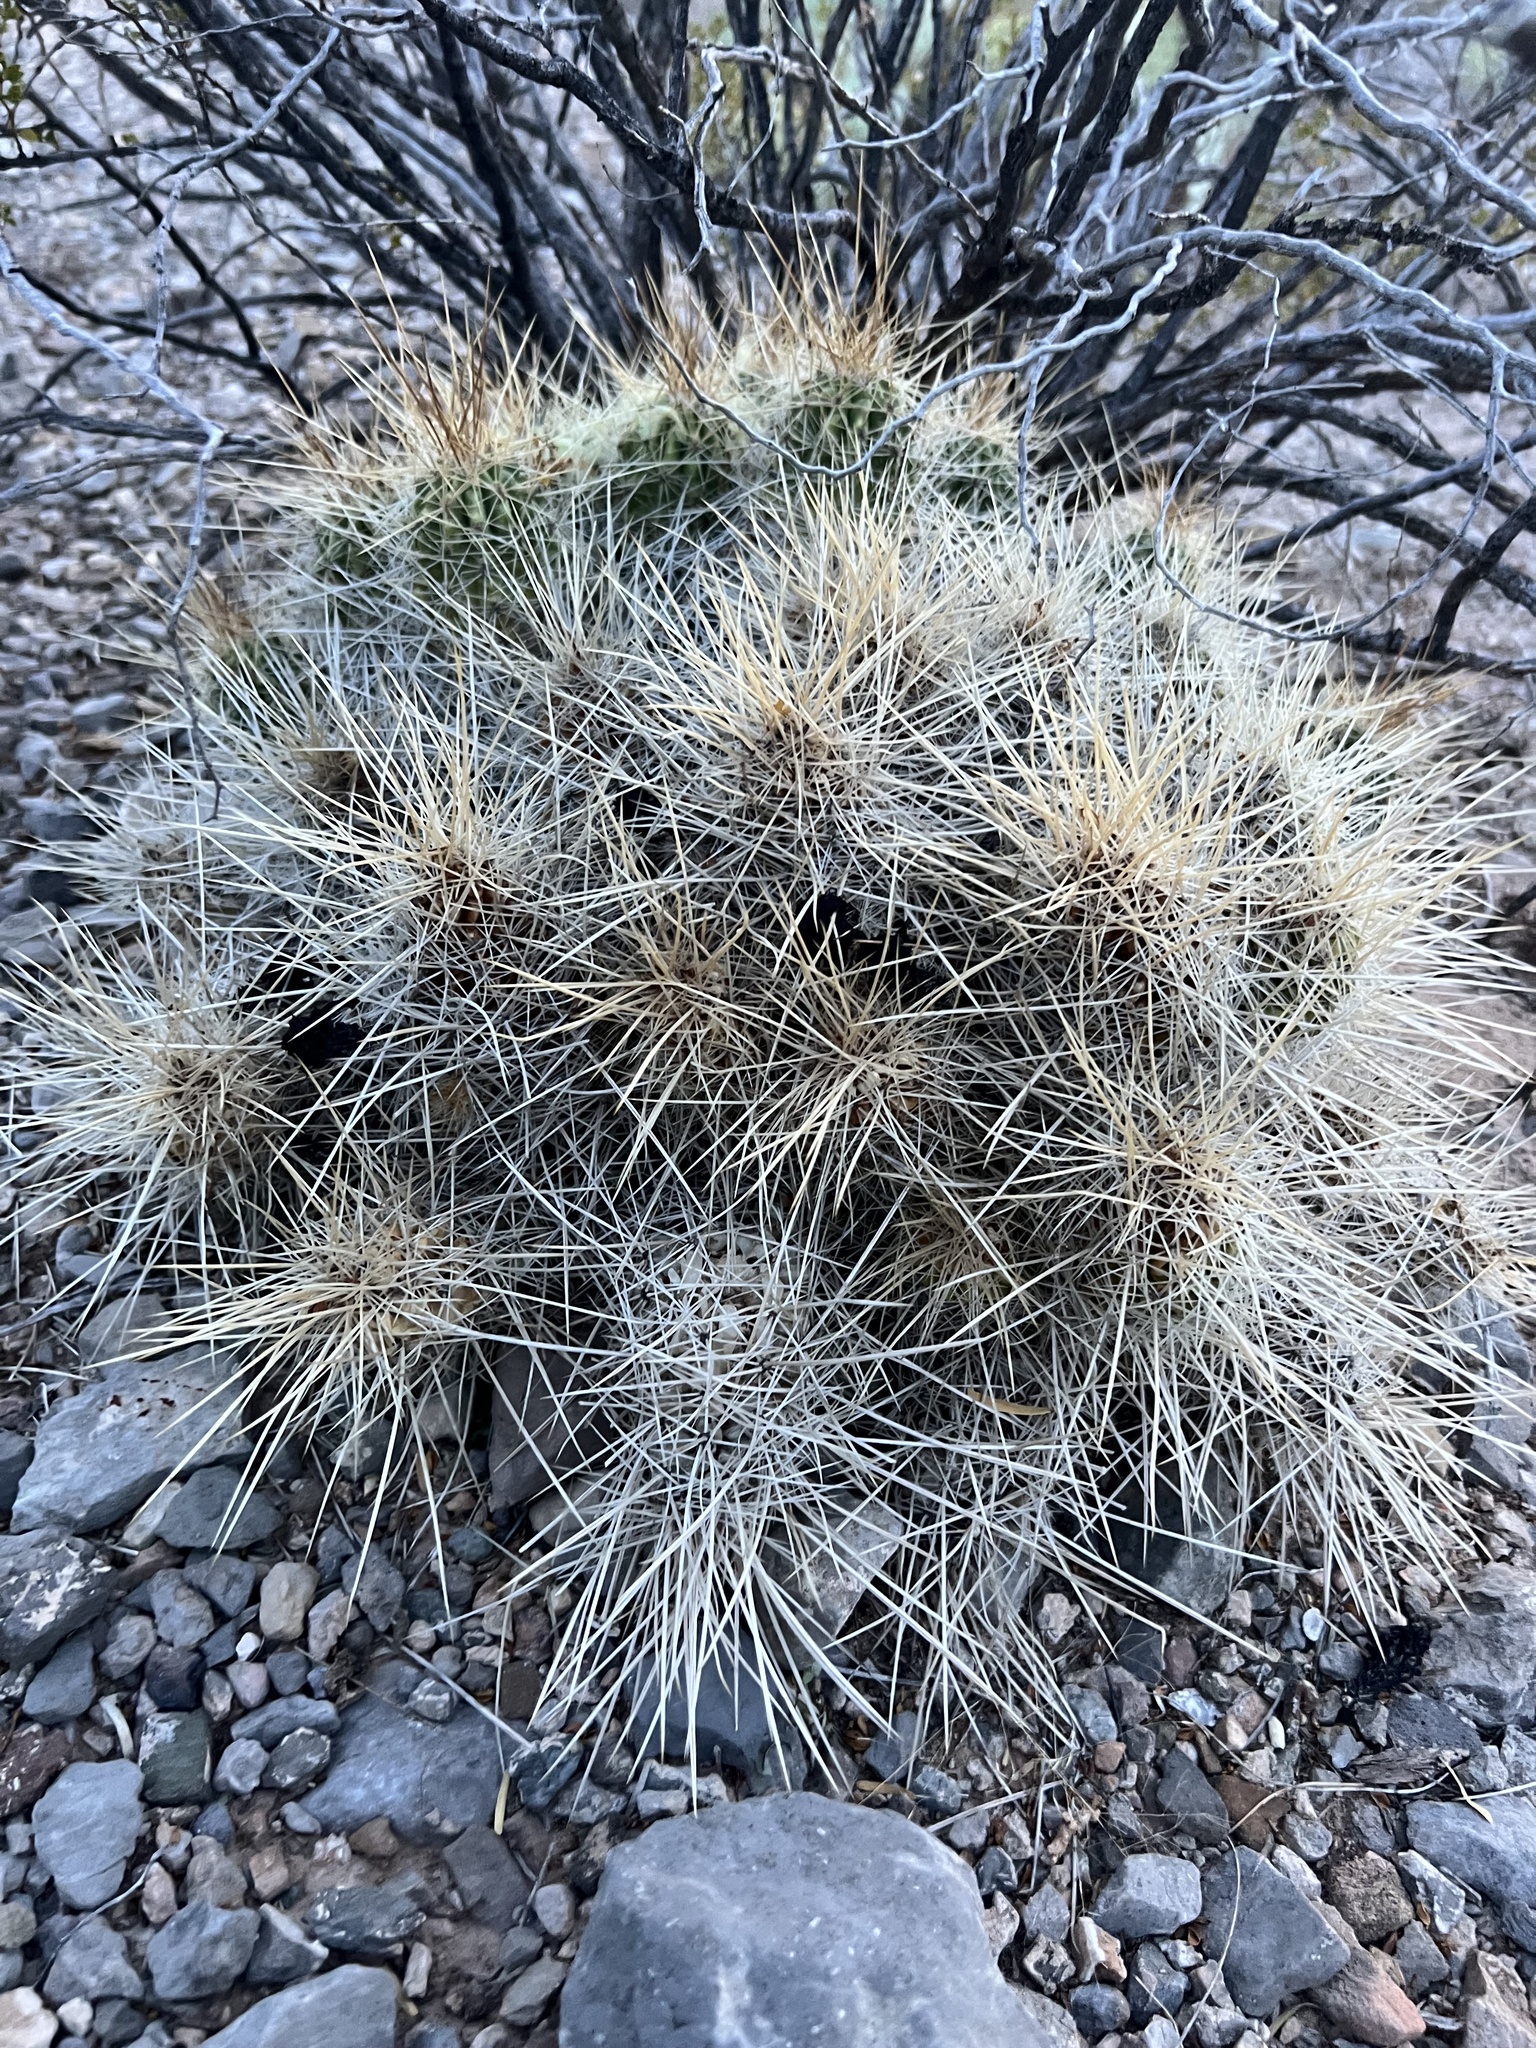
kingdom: Plantae
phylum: Tracheophyta
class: Magnoliopsida
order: Caryophyllales
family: Cactaceae
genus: Echinocereus
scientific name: Echinocereus stramineus
